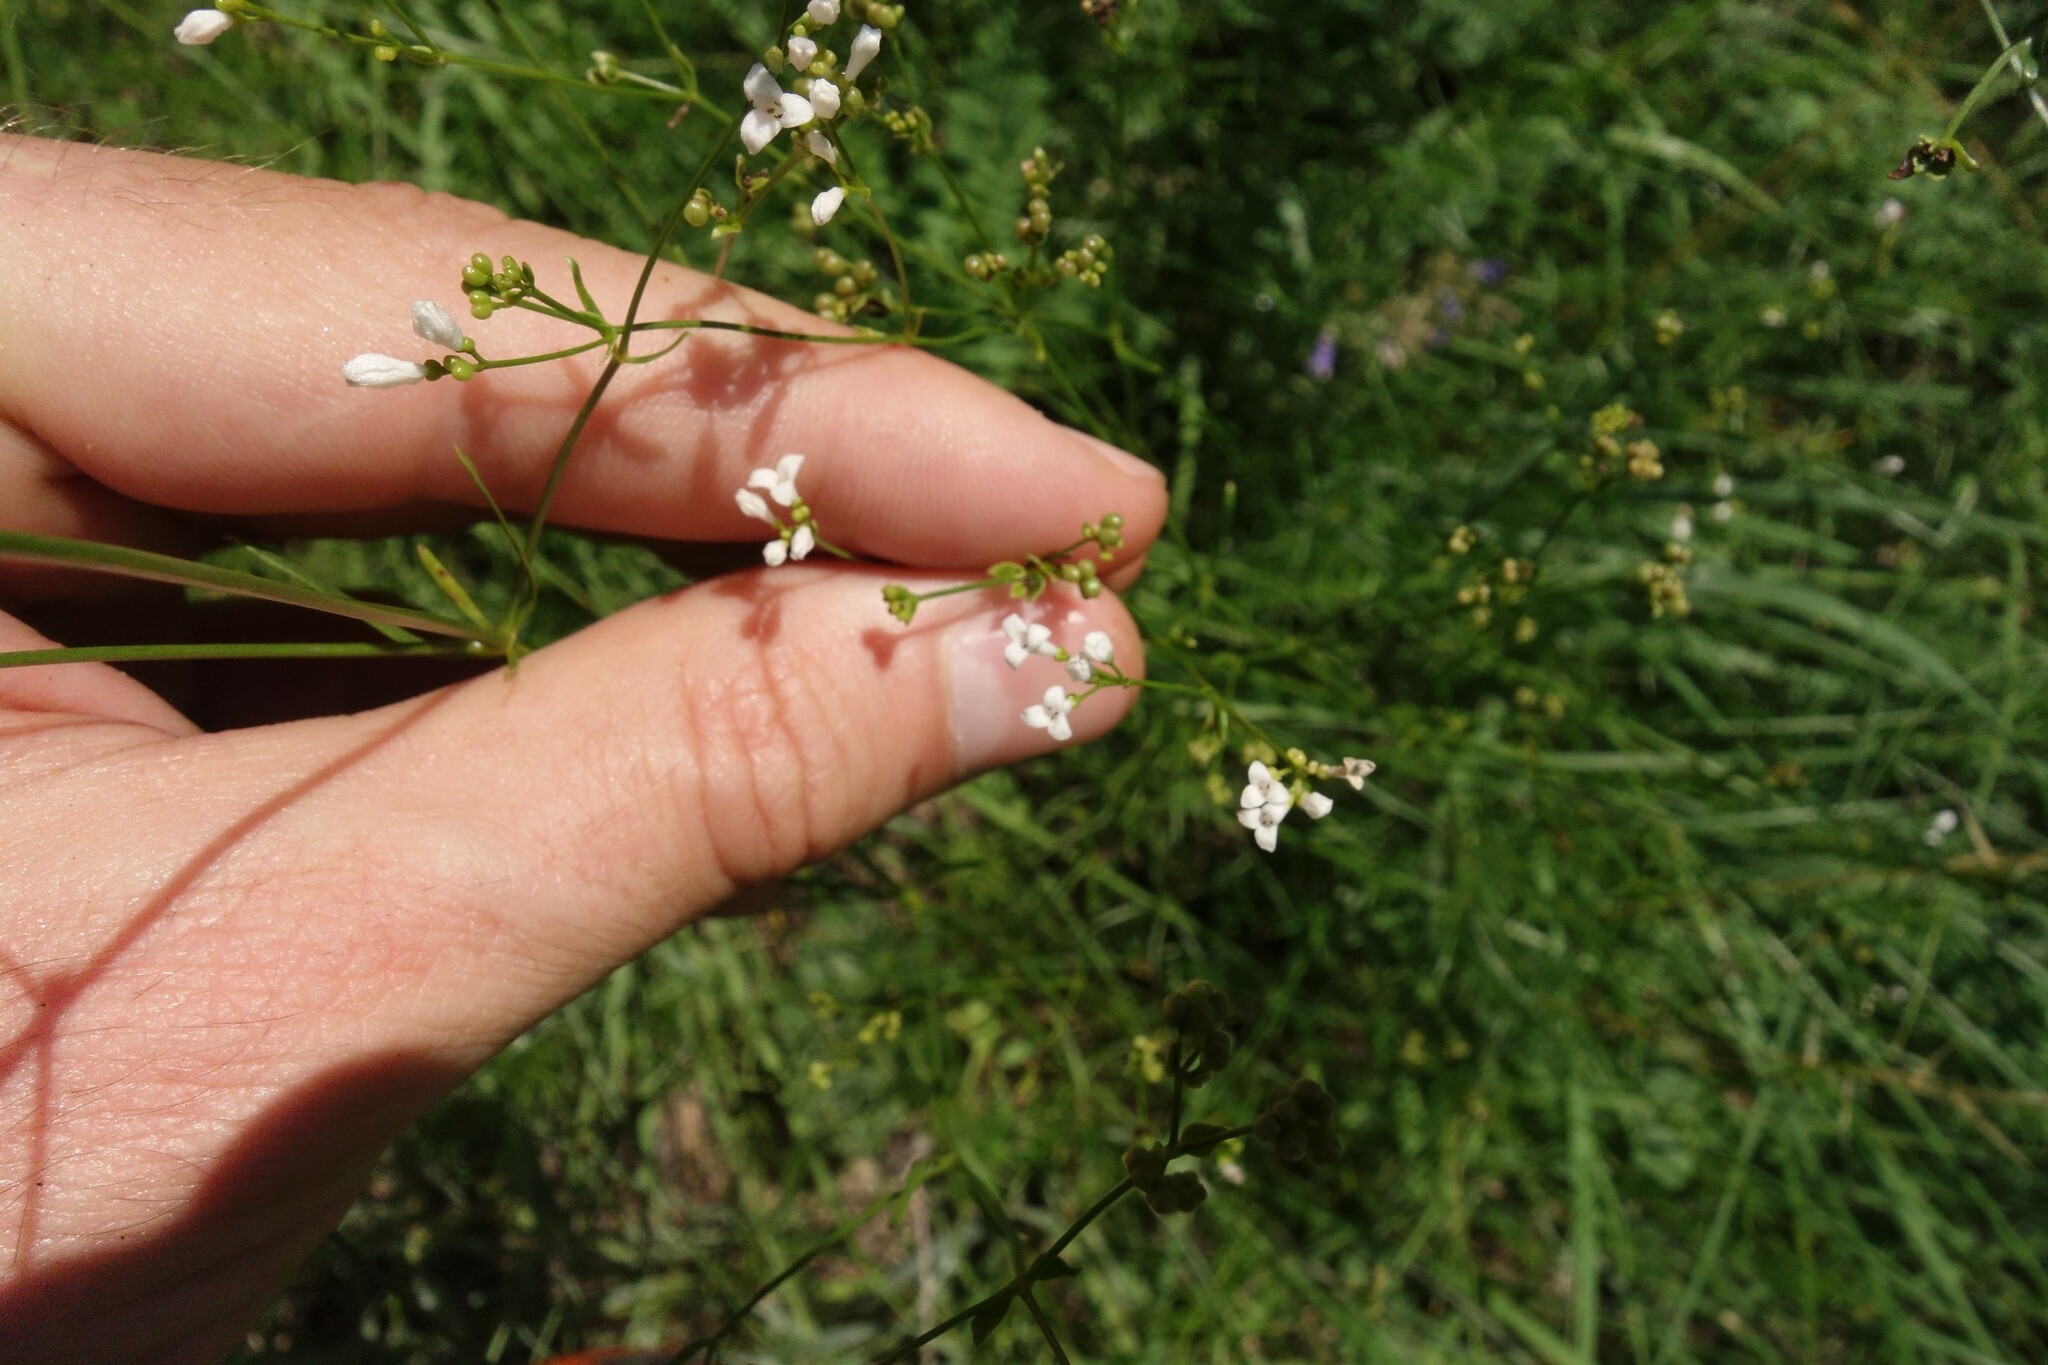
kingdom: Plantae
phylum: Tracheophyta
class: Magnoliopsida
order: Gentianales
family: Rubiaceae
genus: Asperula
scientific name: Asperula tinctoria
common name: Dyer's woodruff
